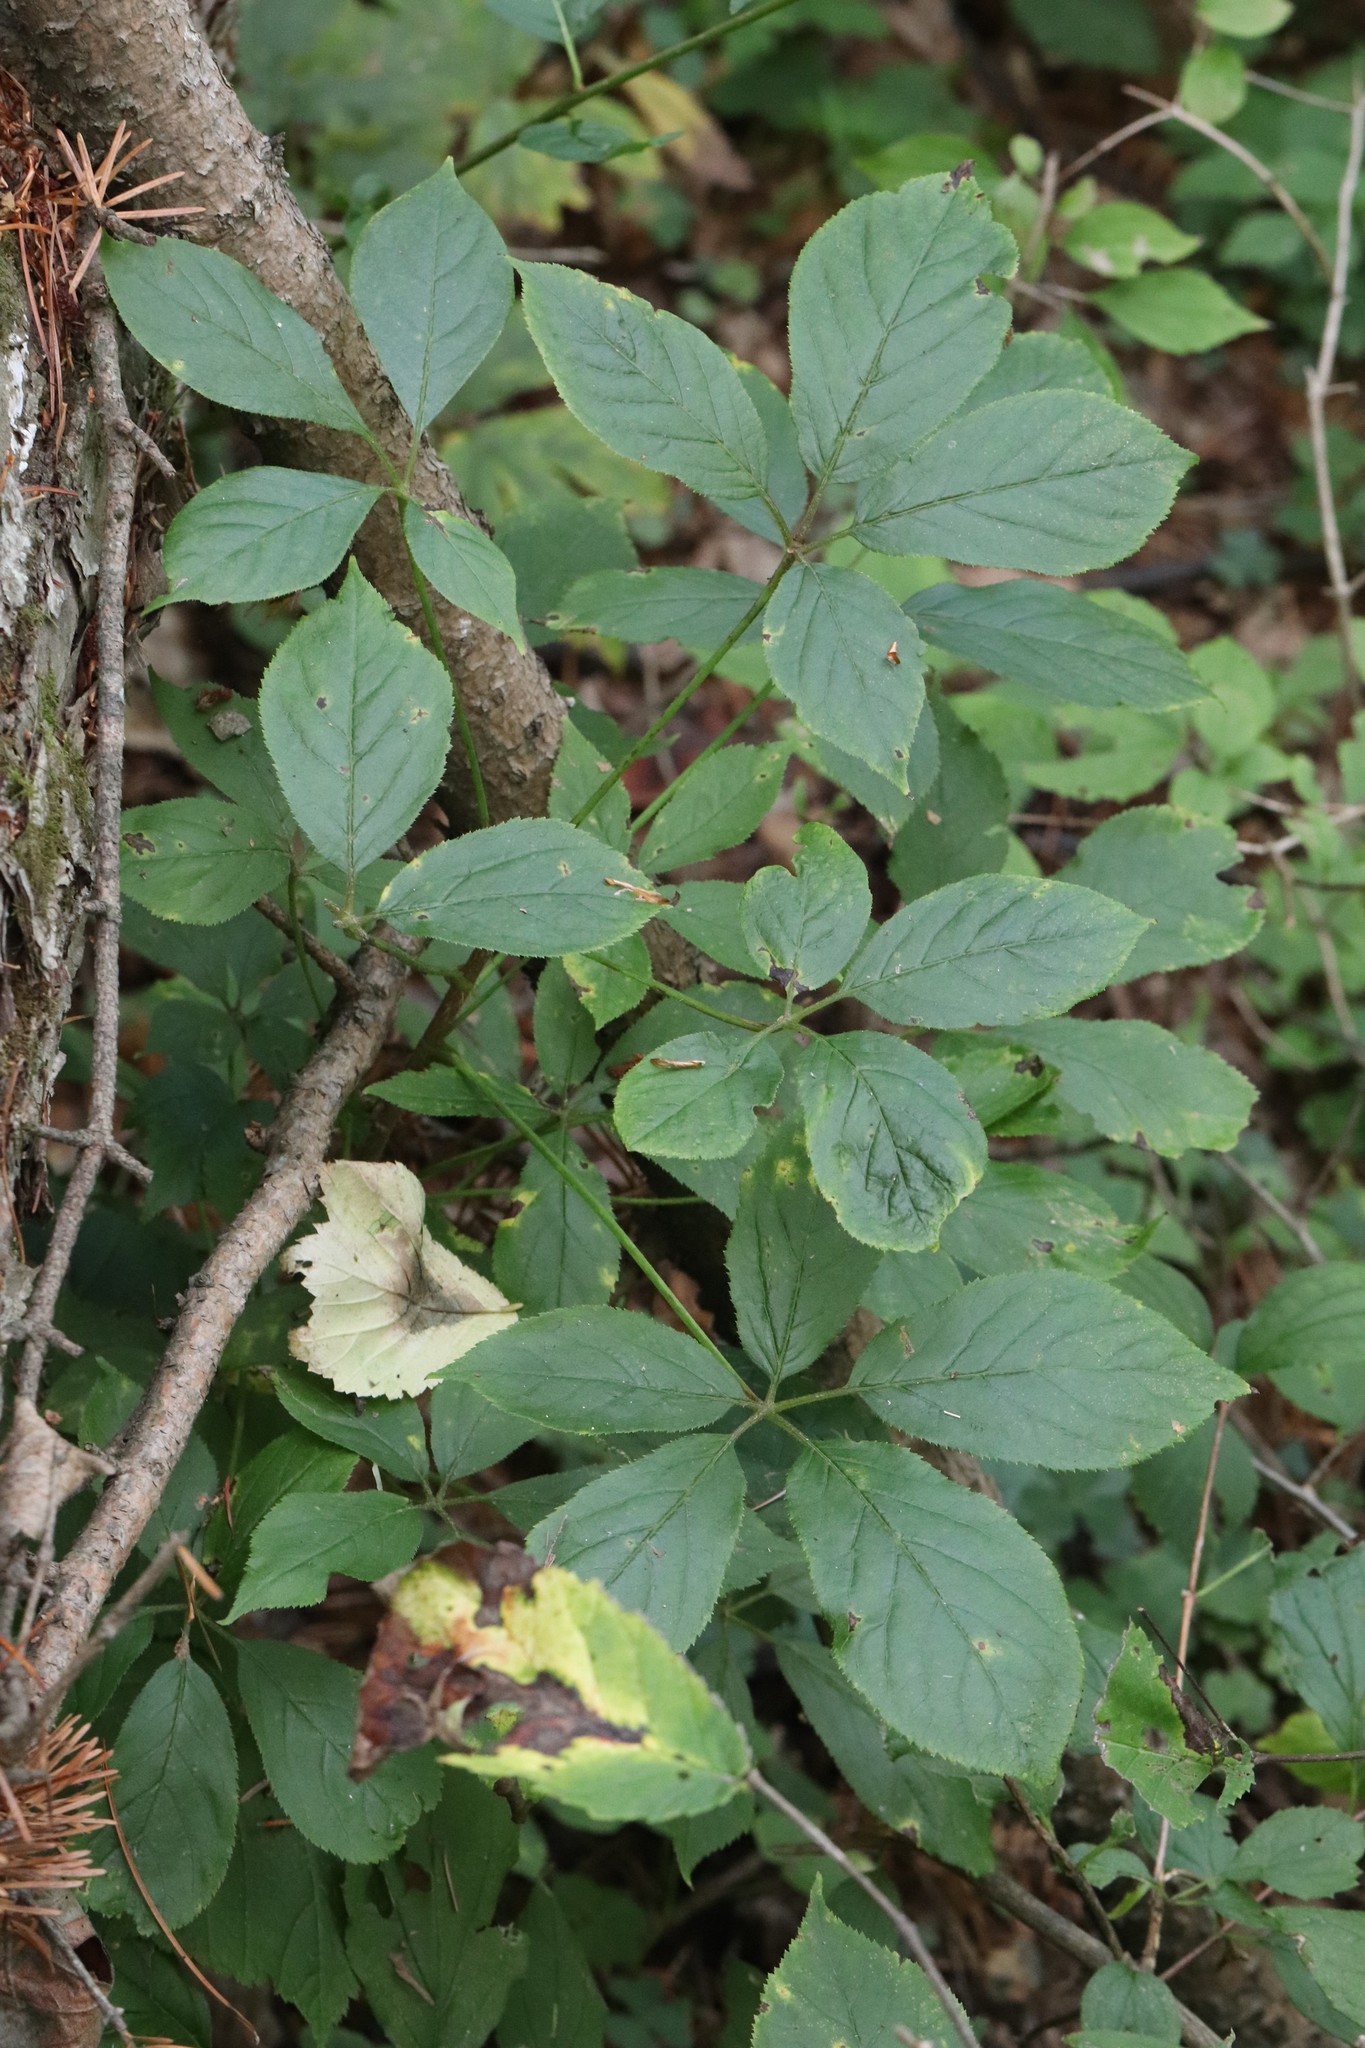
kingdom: Plantae
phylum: Tracheophyta
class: Magnoliopsida
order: Apiales
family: Araliaceae
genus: Eleutherococcus
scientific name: Eleutherococcus senticosus
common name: Siberian-ginseng
